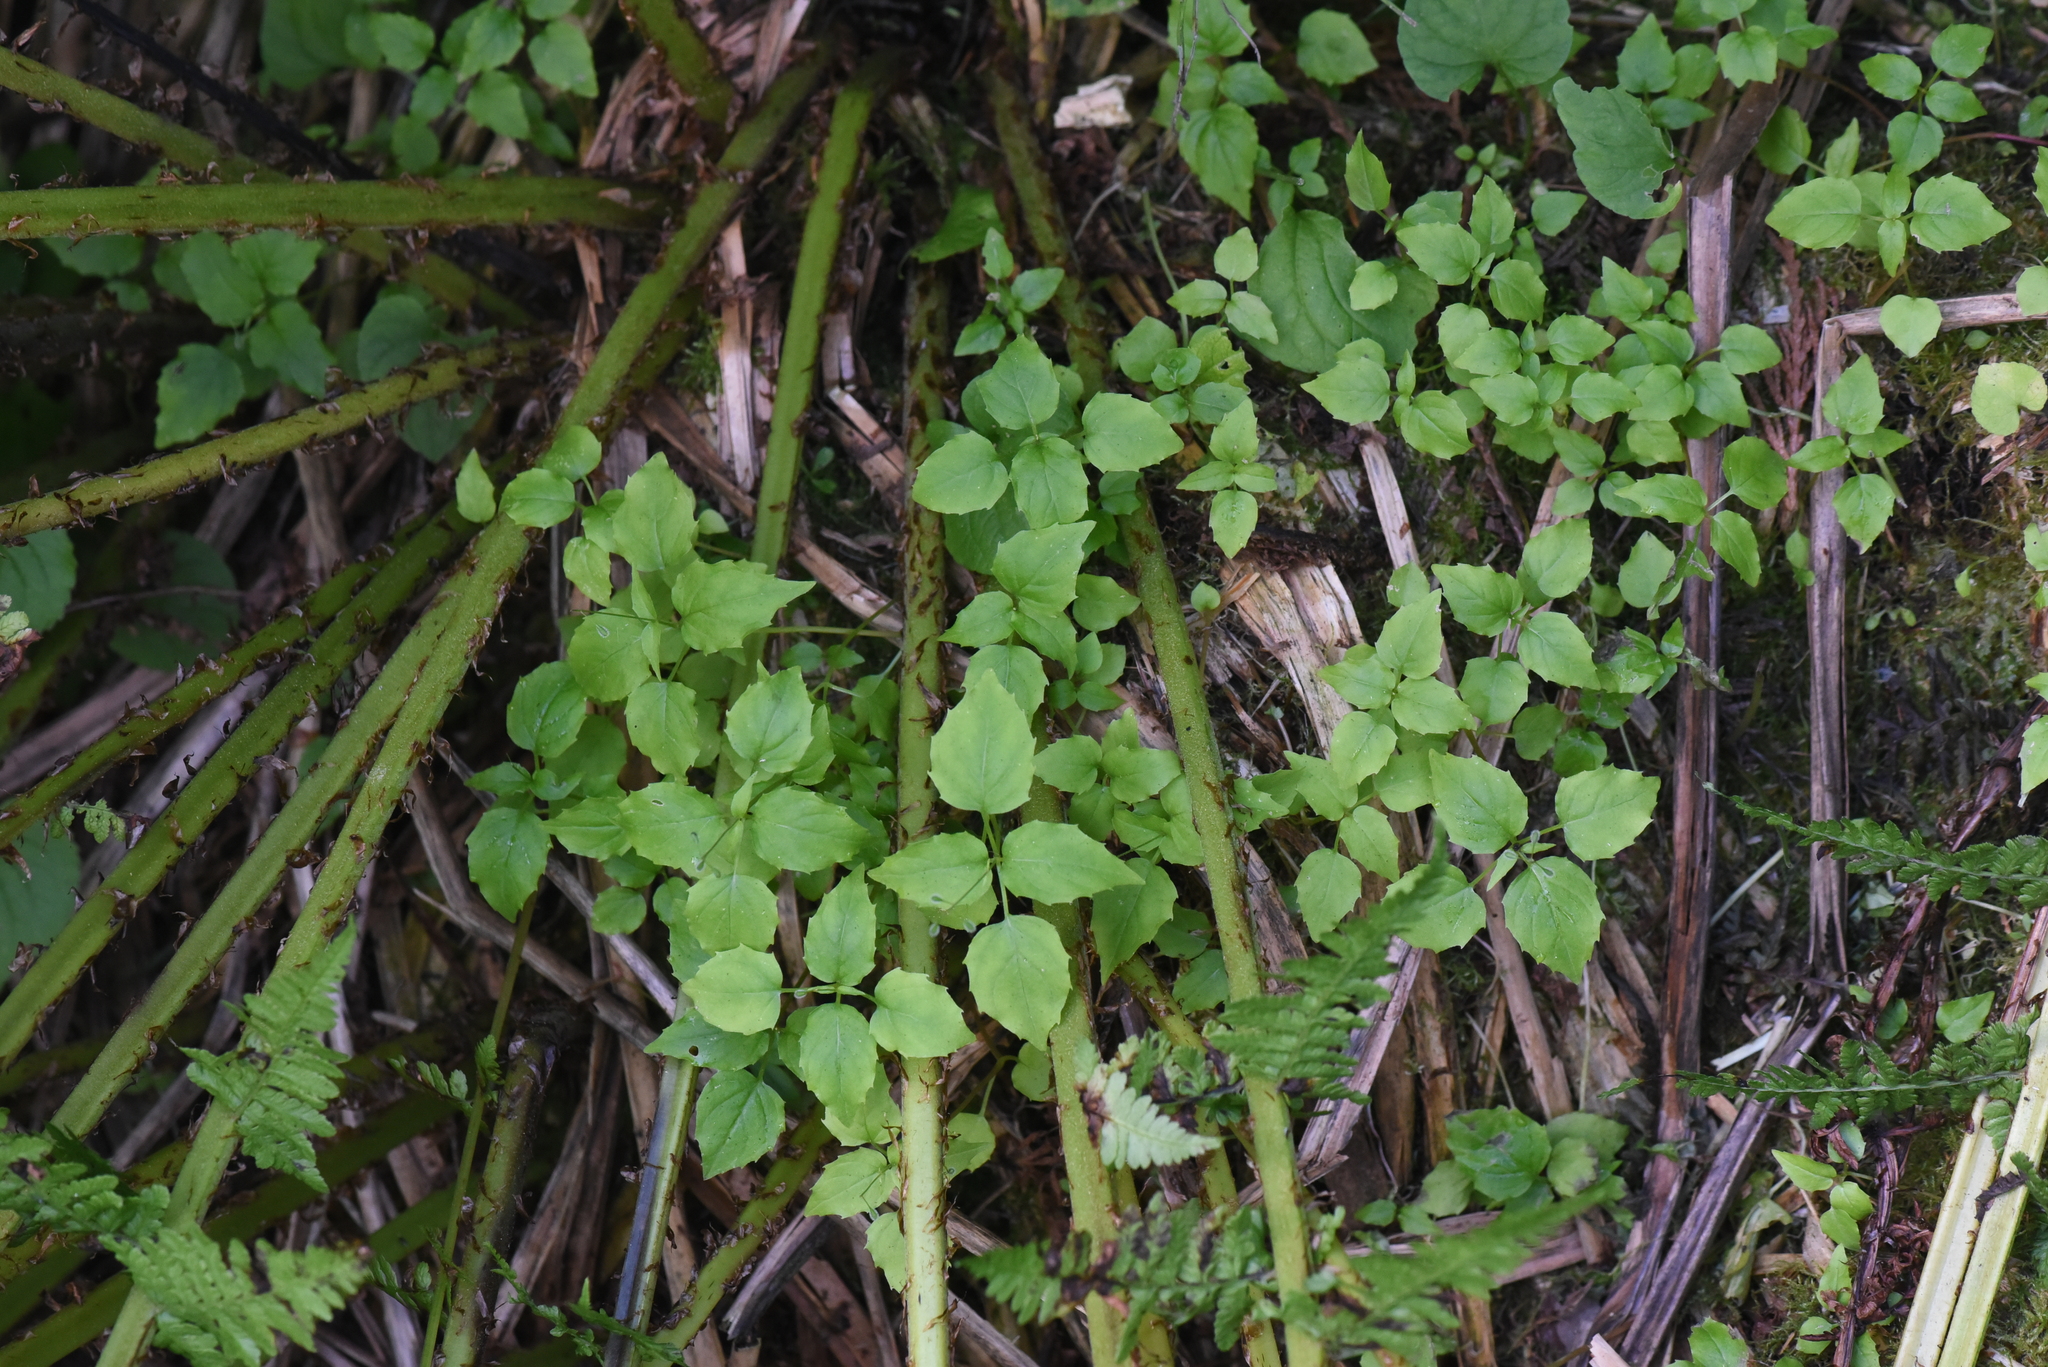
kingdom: Plantae
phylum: Tracheophyta
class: Magnoliopsida
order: Myrtales
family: Onagraceae
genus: Circaea
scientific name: Circaea alpina
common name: Alpine enchanter's-nightshade
